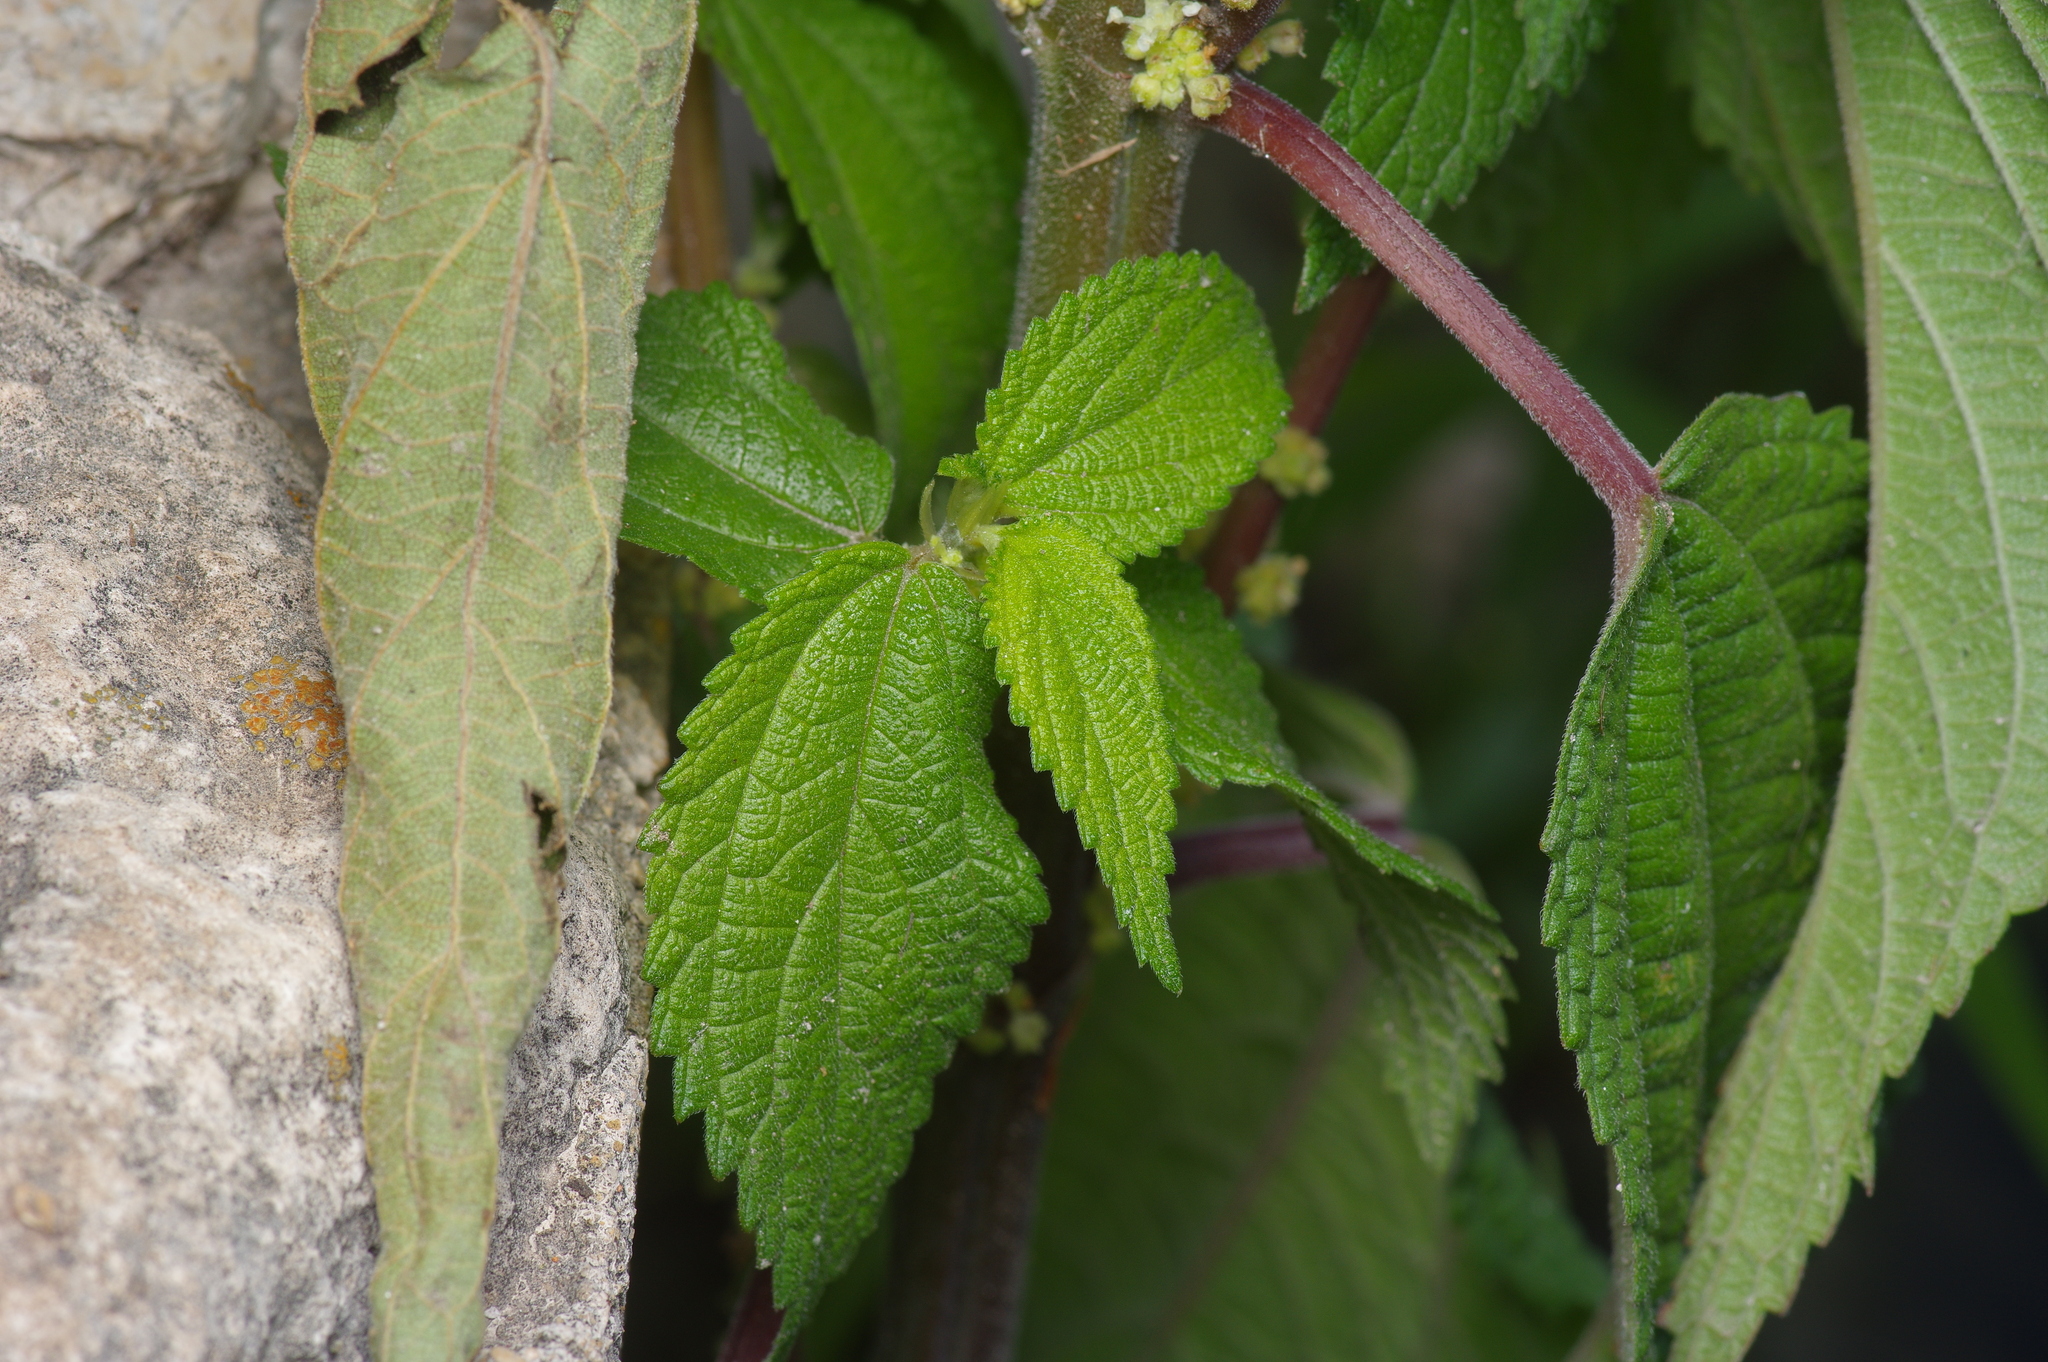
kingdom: Plantae
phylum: Tracheophyta
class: Magnoliopsida
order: Rosales
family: Urticaceae
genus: Boehmeria
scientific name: Boehmeria cylindrica
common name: Bog-hemp
